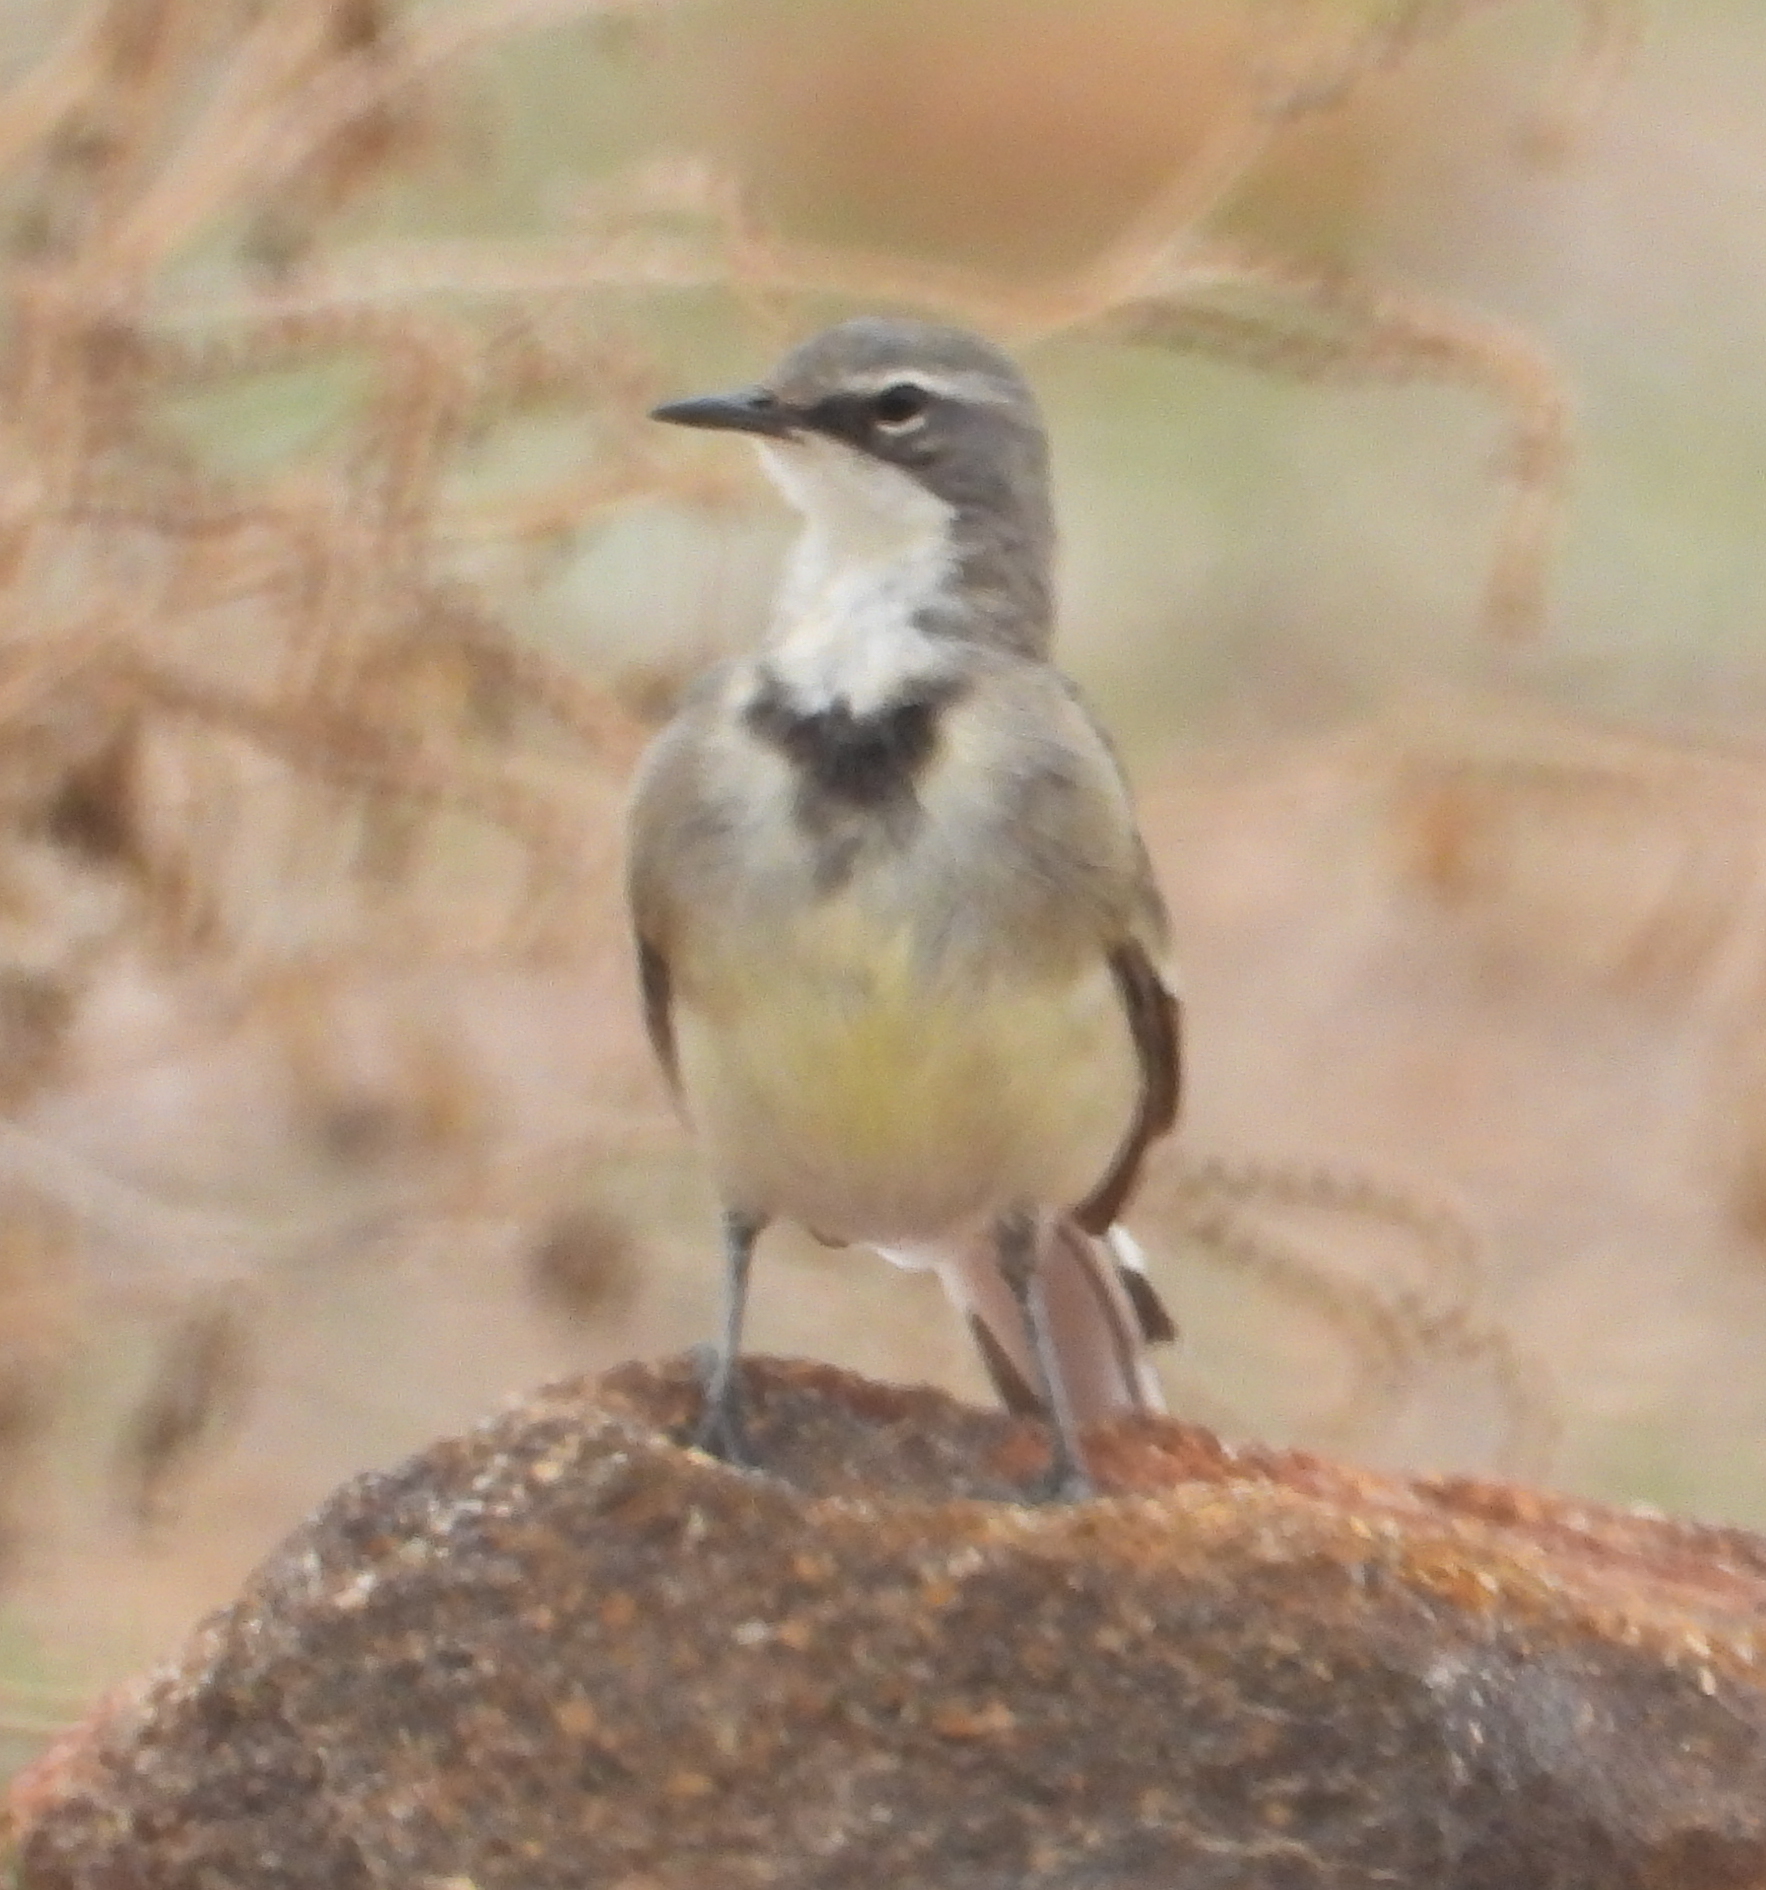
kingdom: Animalia
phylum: Chordata
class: Aves
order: Passeriformes
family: Motacillidae
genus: Motacilla
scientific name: Motacilla capensis
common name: Cape wagtail
